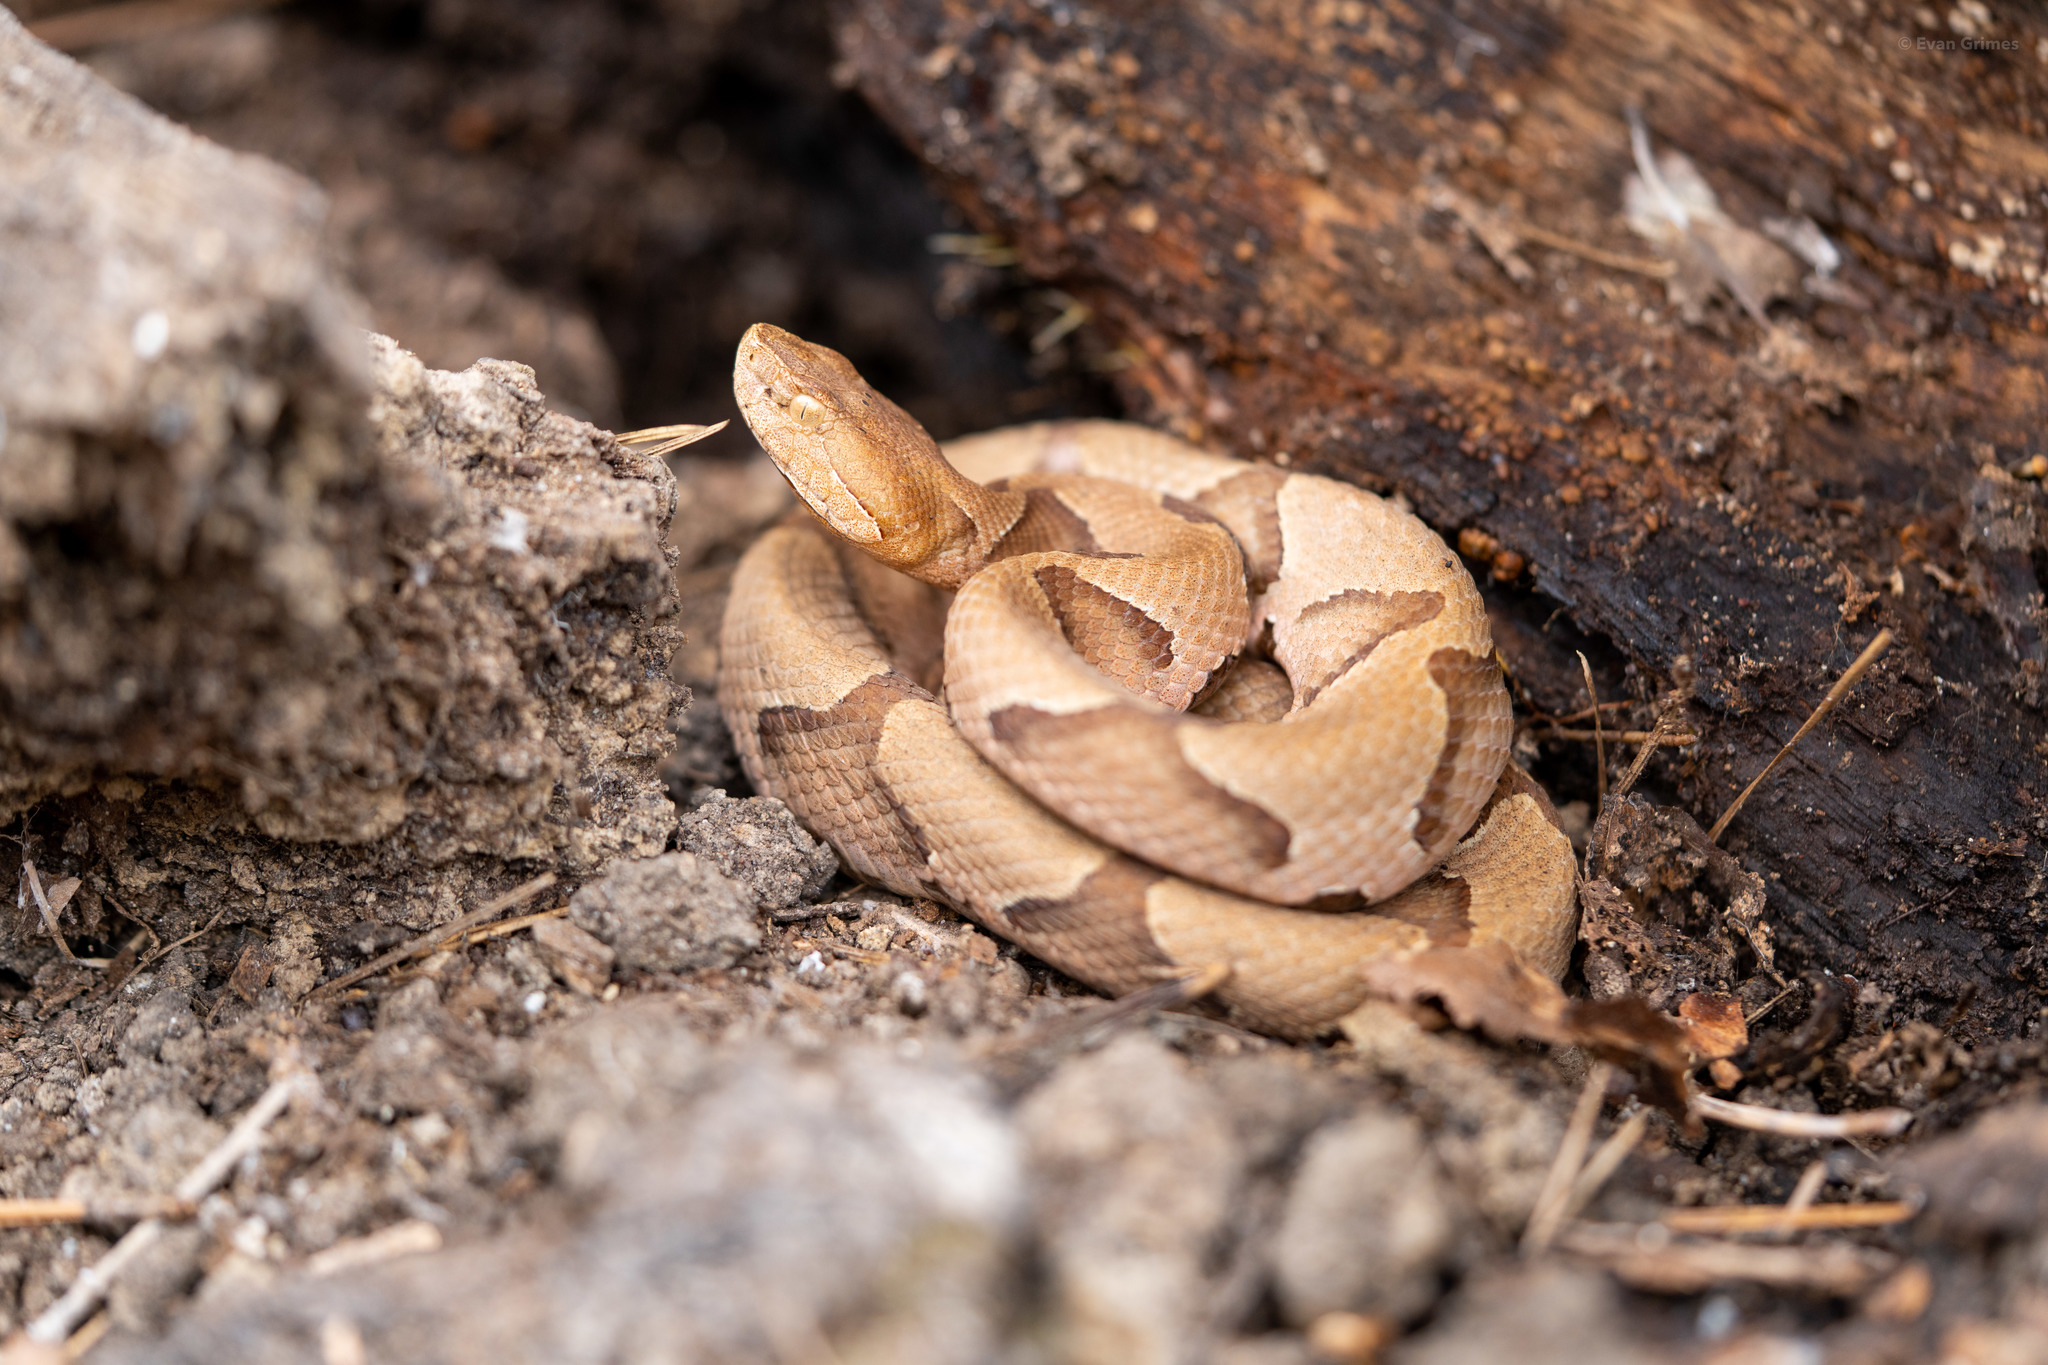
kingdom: Animalia
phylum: Chordata
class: Squamata
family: Viperidae
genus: Agkistrodon
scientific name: Agkistrodon contortrix
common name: Northern copperhead
